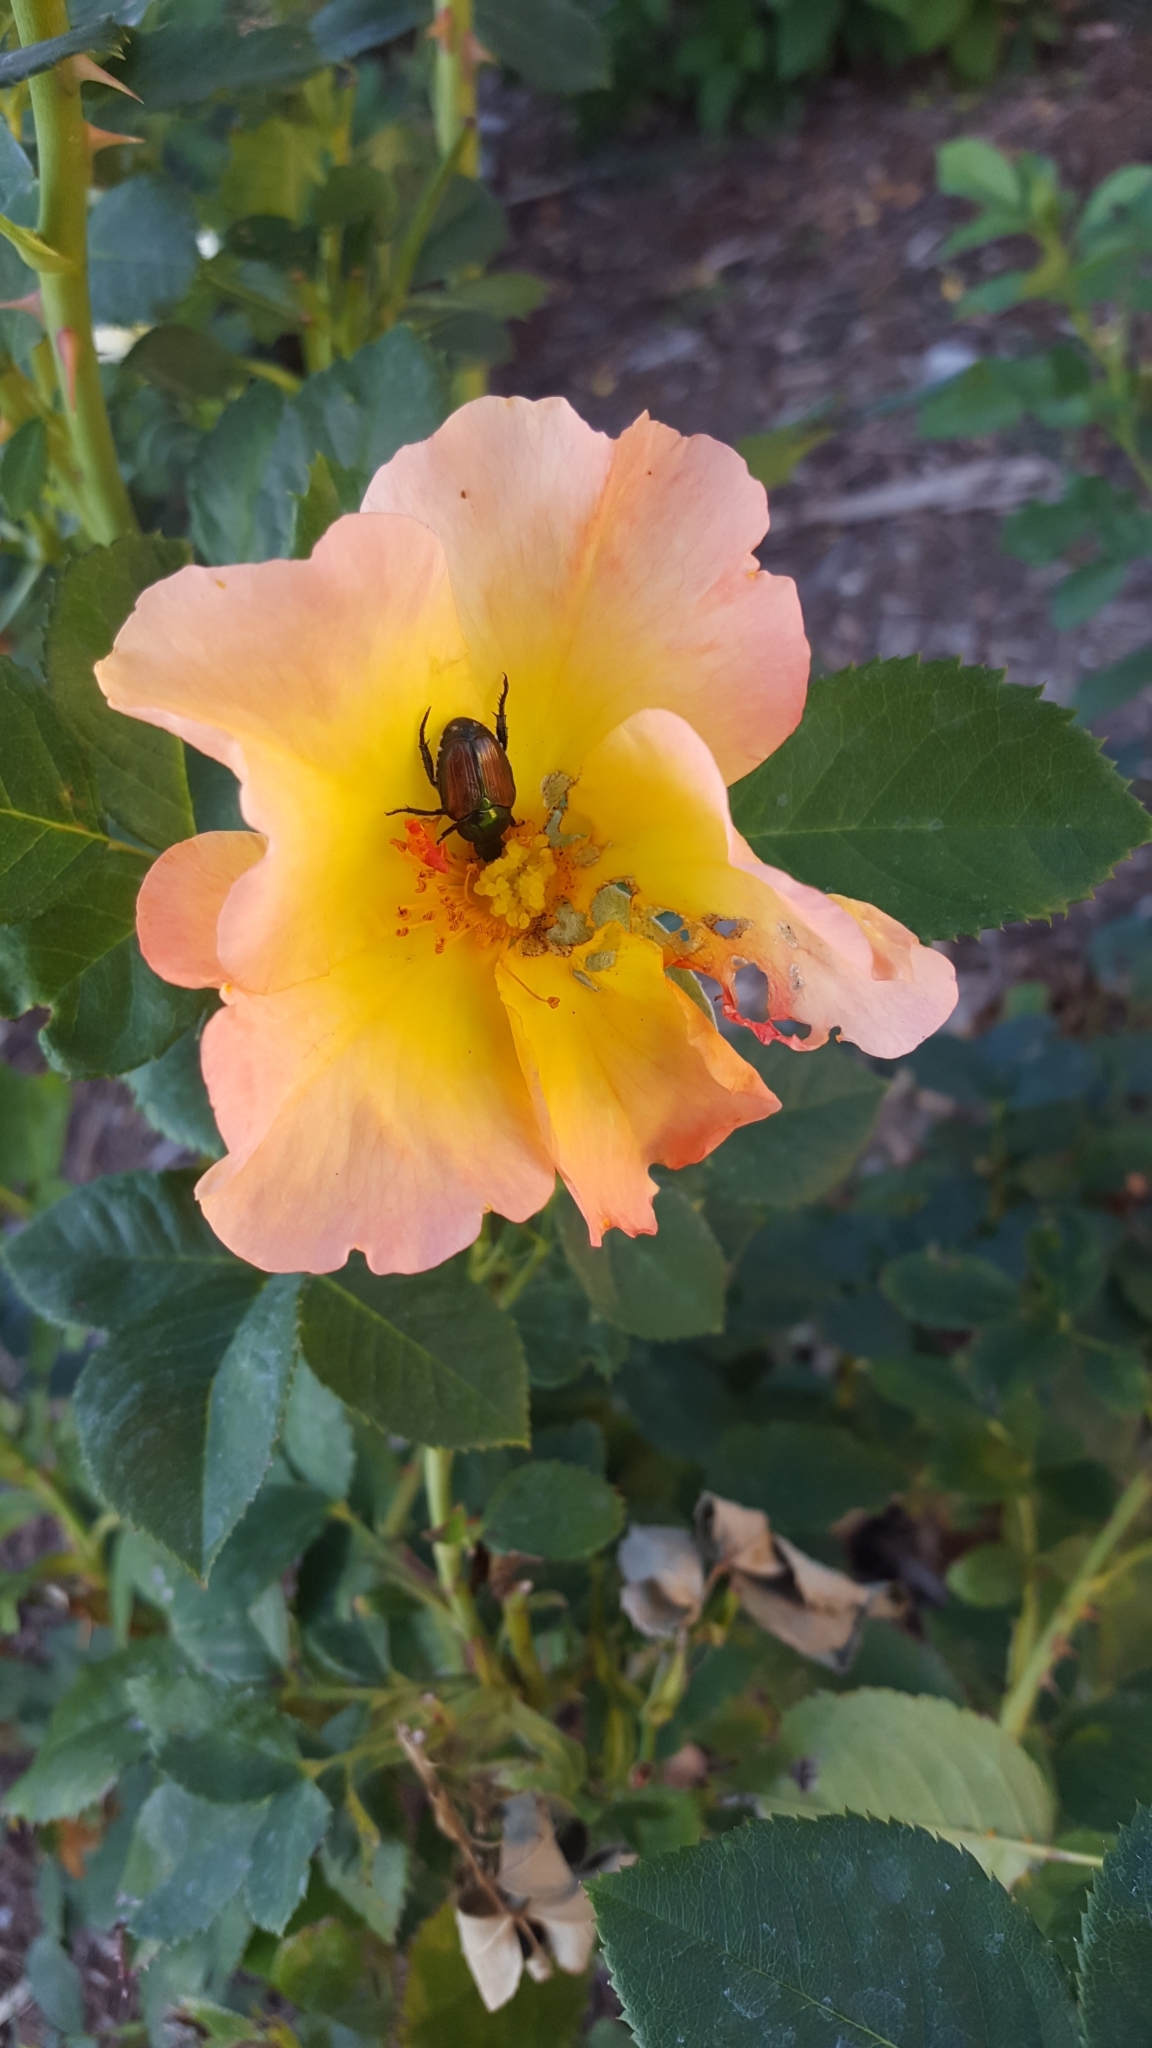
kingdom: Animalia
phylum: Arthropoda
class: Insecta
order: Coleoptera
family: Scarabaeidae
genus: Popillia
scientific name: Popillia japonica
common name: Japanese beetle
